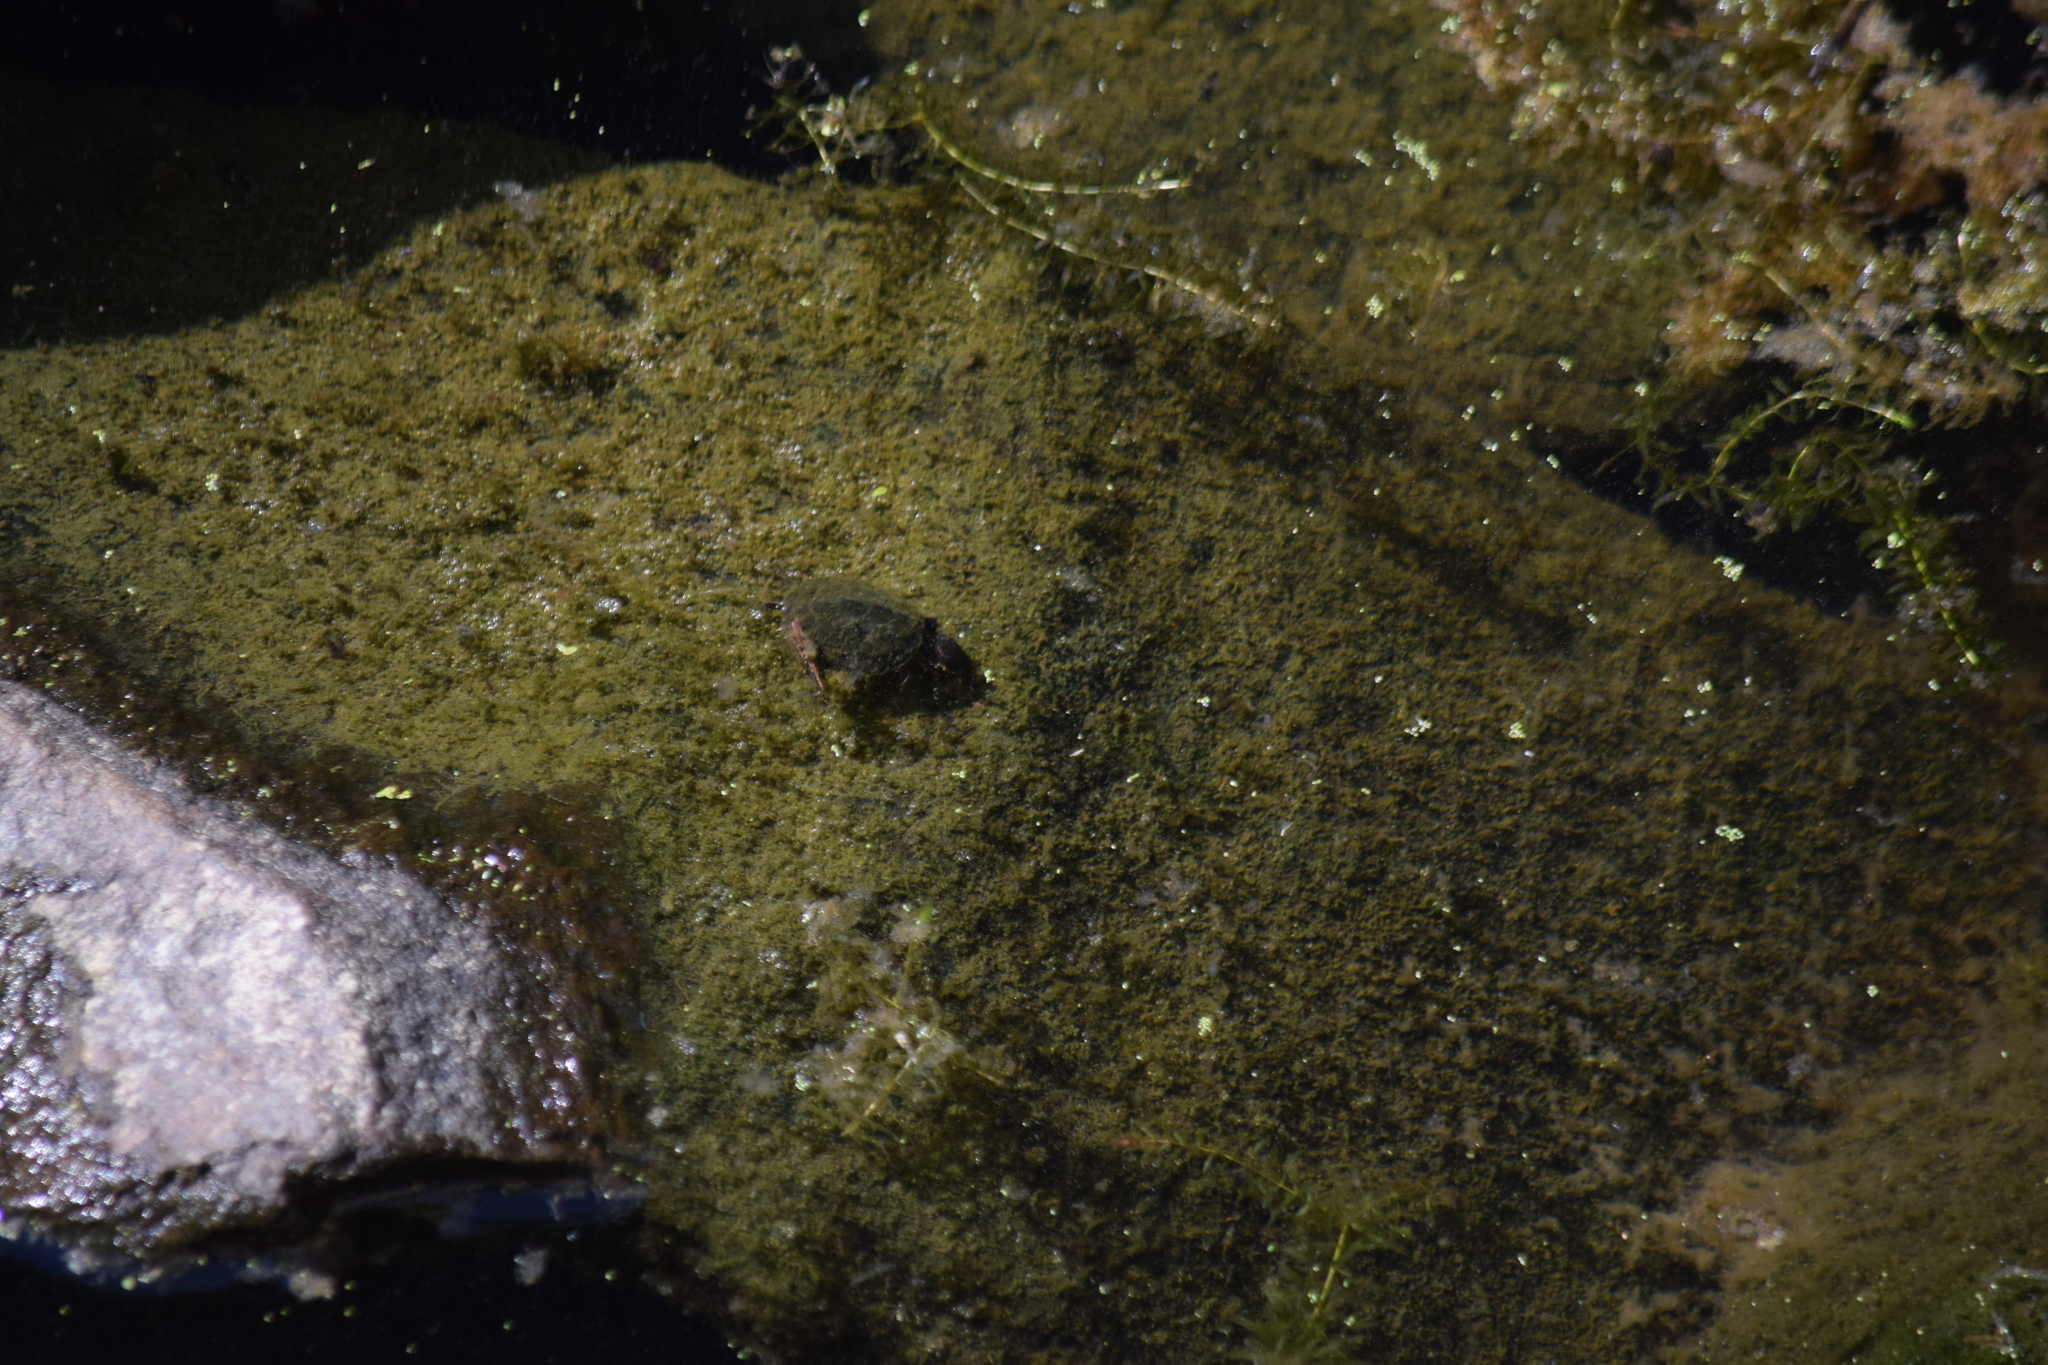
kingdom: Animalia
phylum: Chordata
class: Testudines
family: Kinosternidae
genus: Sternotherus
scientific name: Sternotherus odoratus
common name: Common musk turtle
